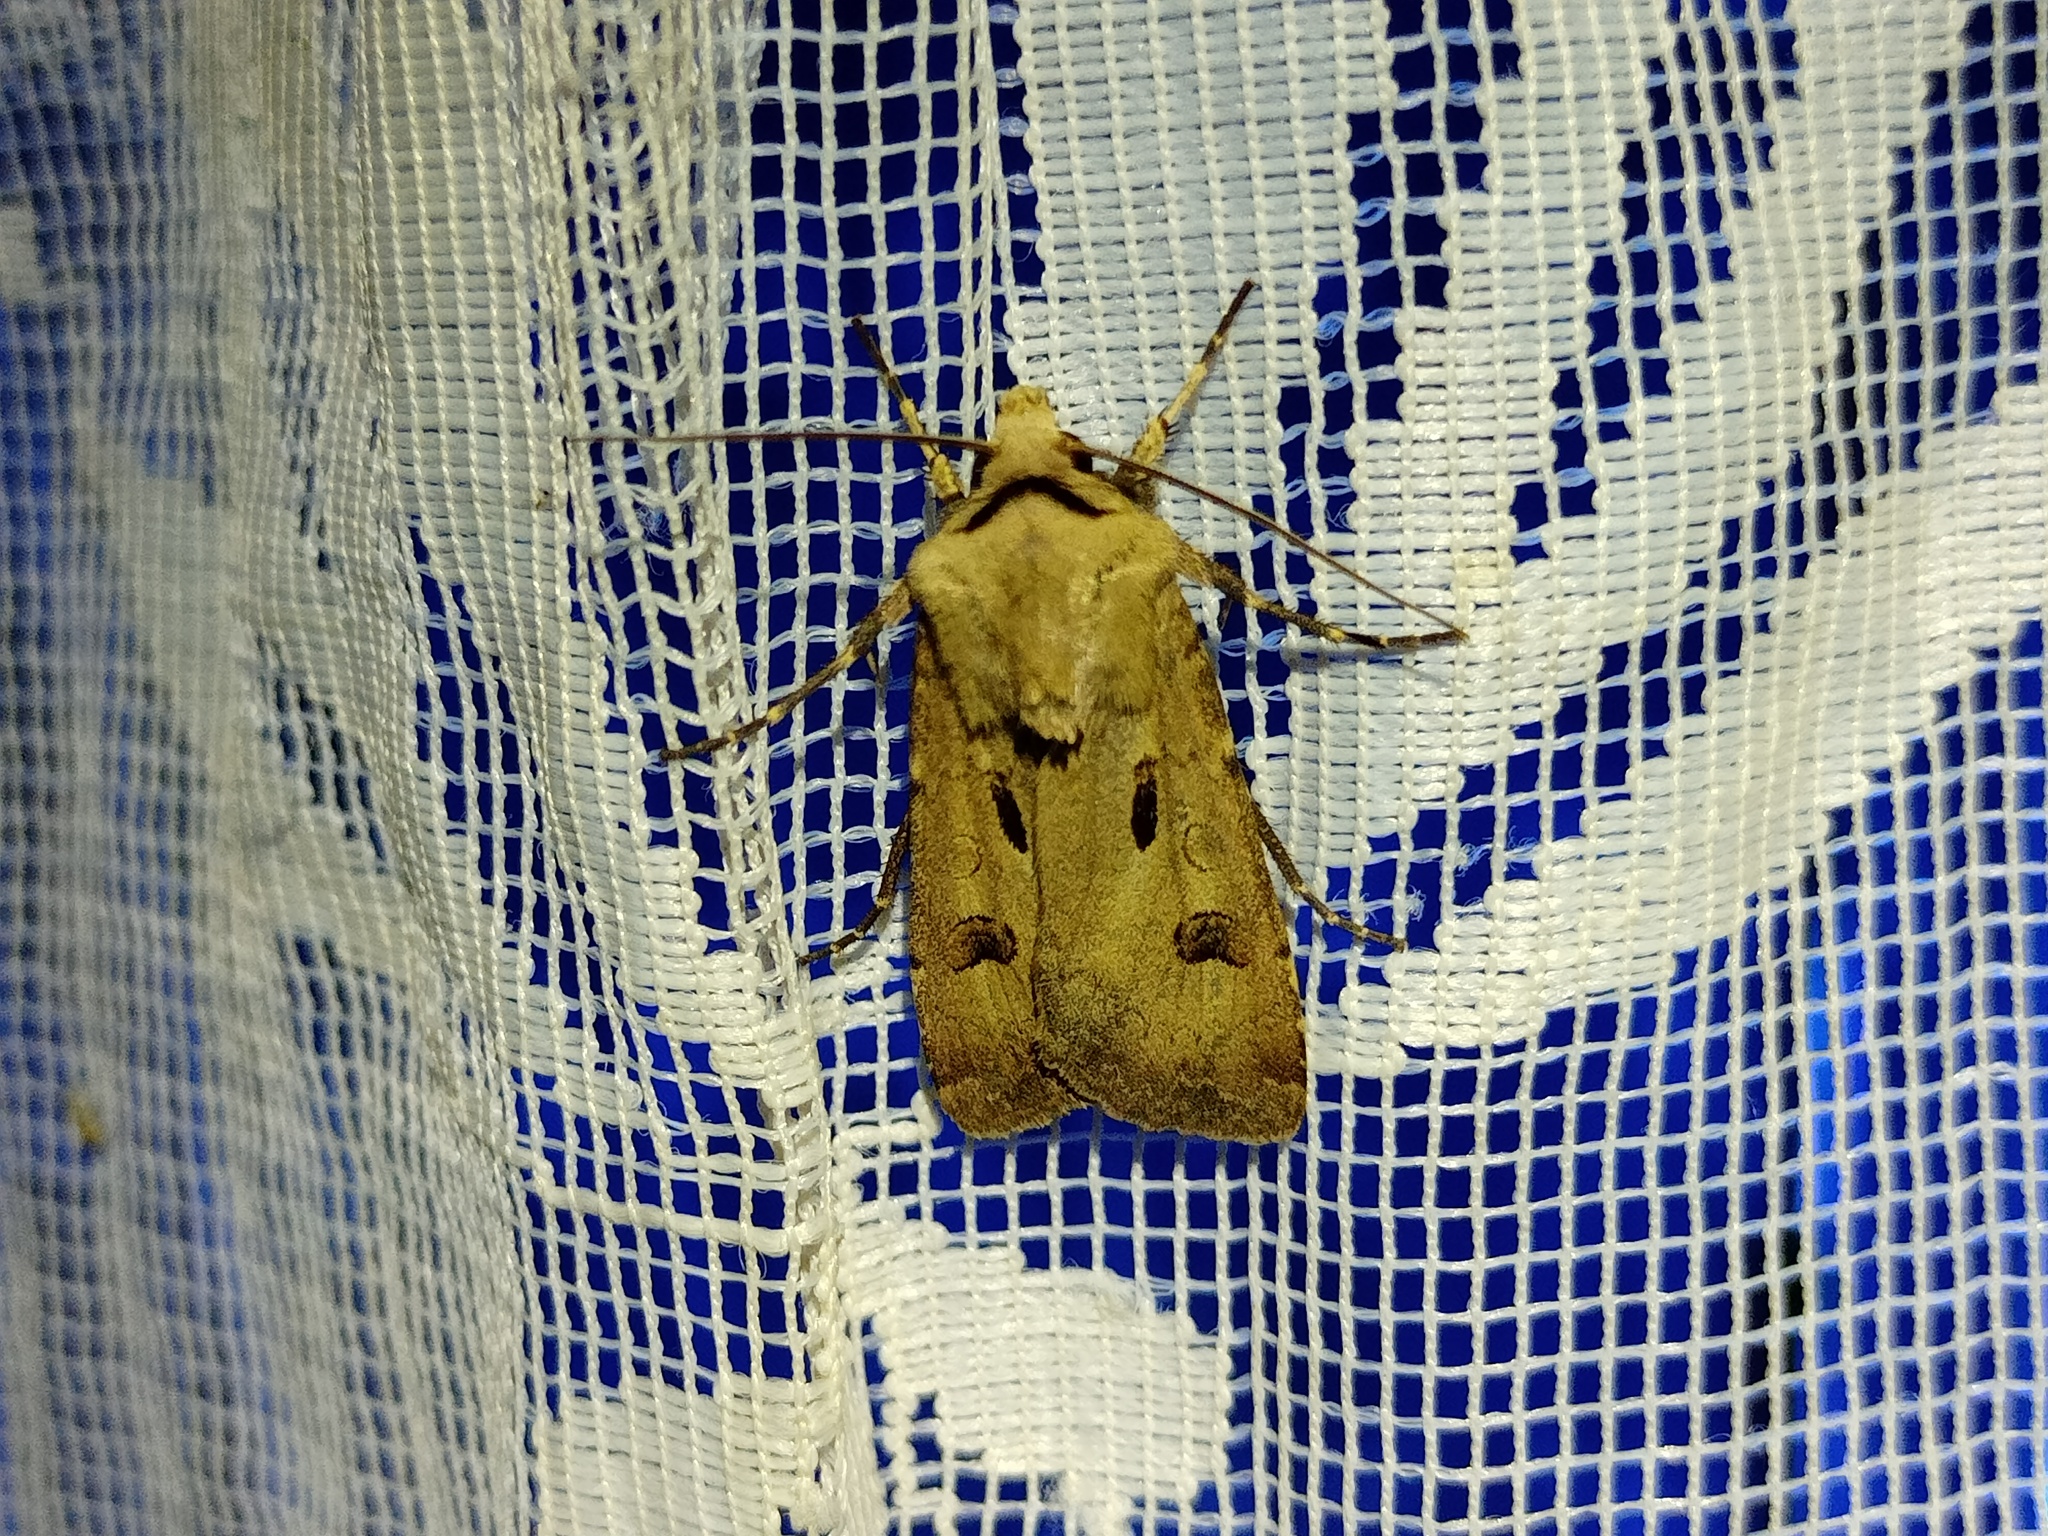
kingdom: Animalia
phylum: Arthropoda
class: Insecta
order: Lepidoptera
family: Noctuidae
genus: Agrotis
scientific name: Agrotis exclamationis
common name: Heart and dart
